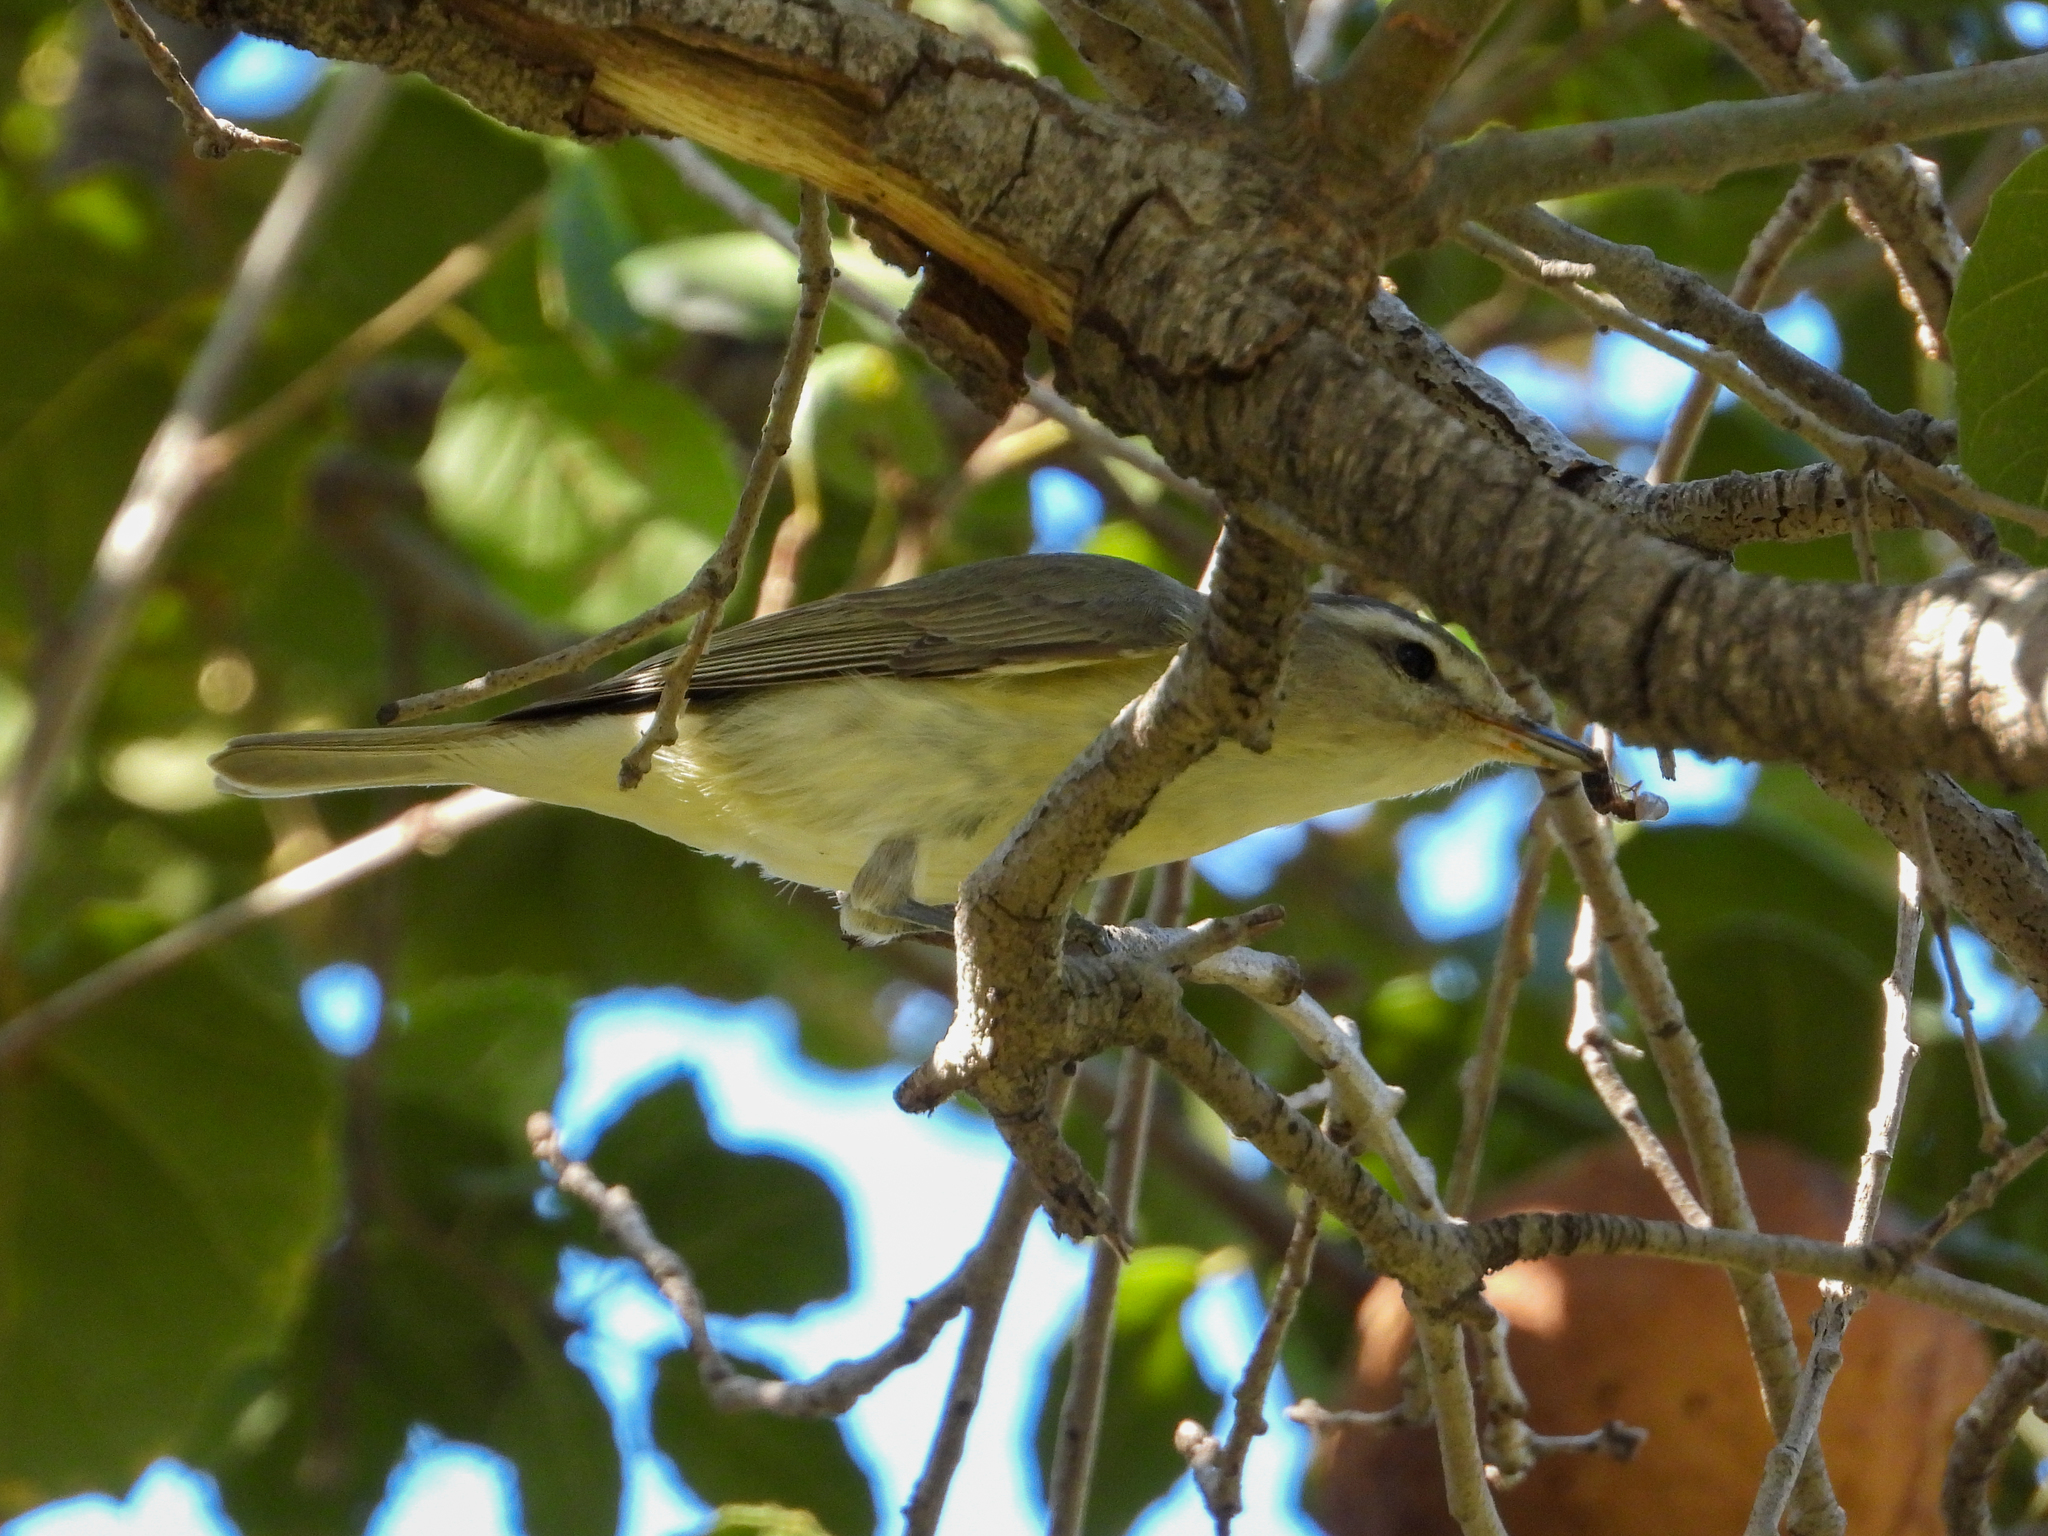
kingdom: Animalia
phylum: Chordata
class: Aves
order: Passeriformes
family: Vireonidae
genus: Vireo
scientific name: Vireo gilvus
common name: Warbling vireo
